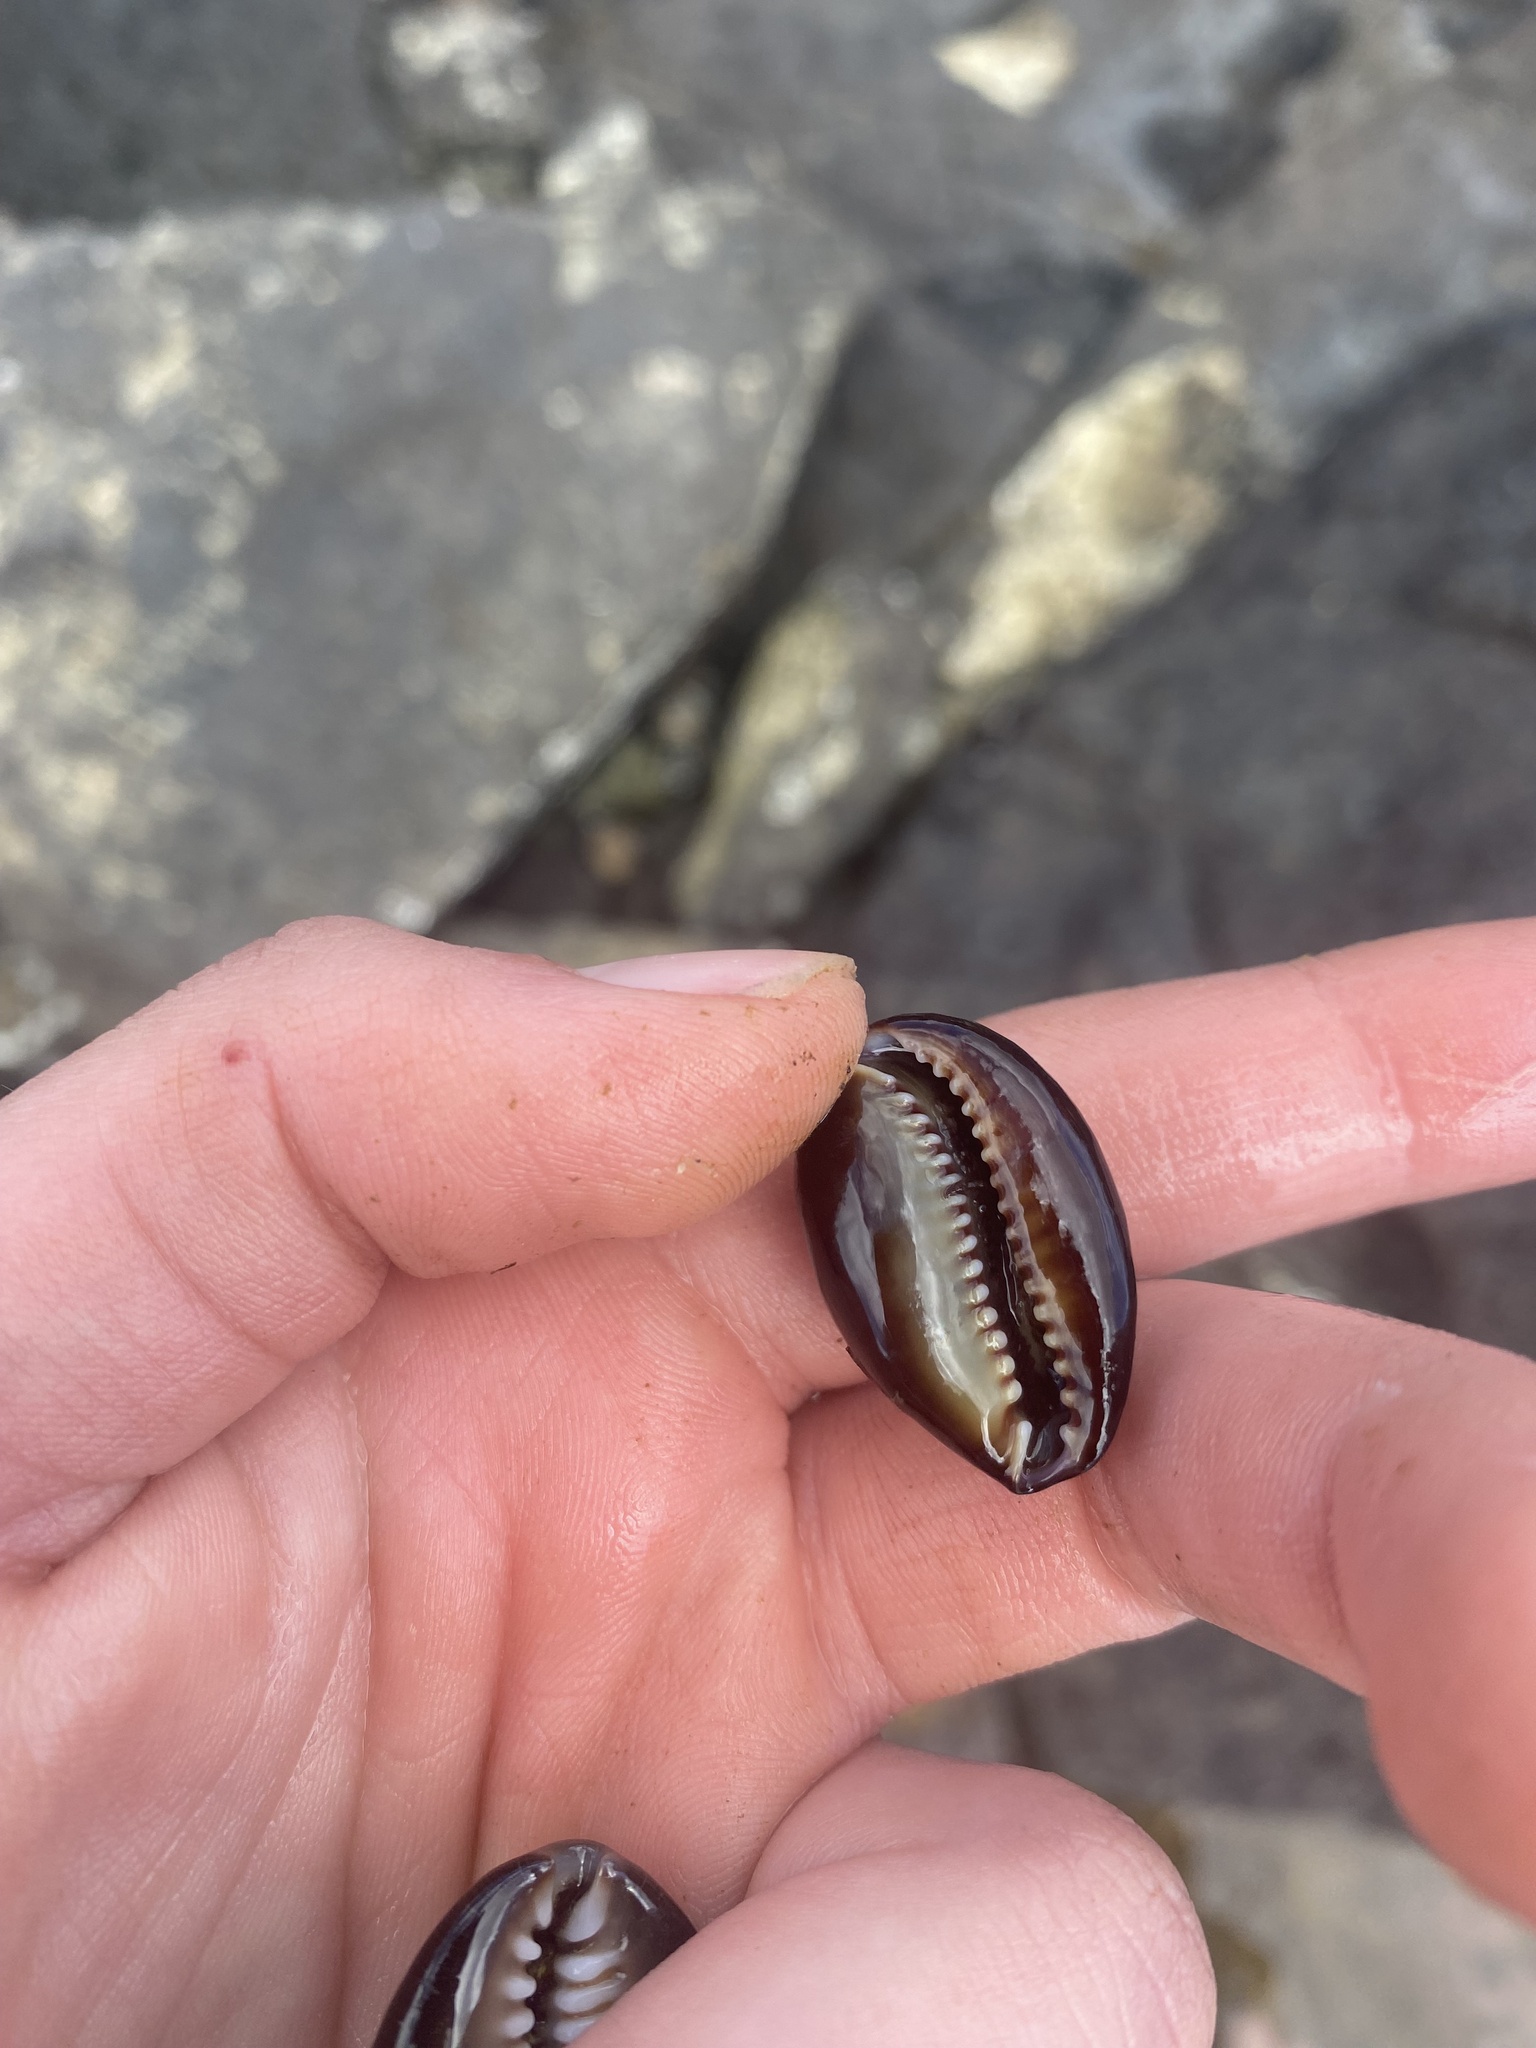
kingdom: Animalia
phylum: Mollusca
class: Gastropoda
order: Littorinimorpha
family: Cypraeidae
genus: Monetaria
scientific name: Monetaria caputophidii
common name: Snake's head cowry
